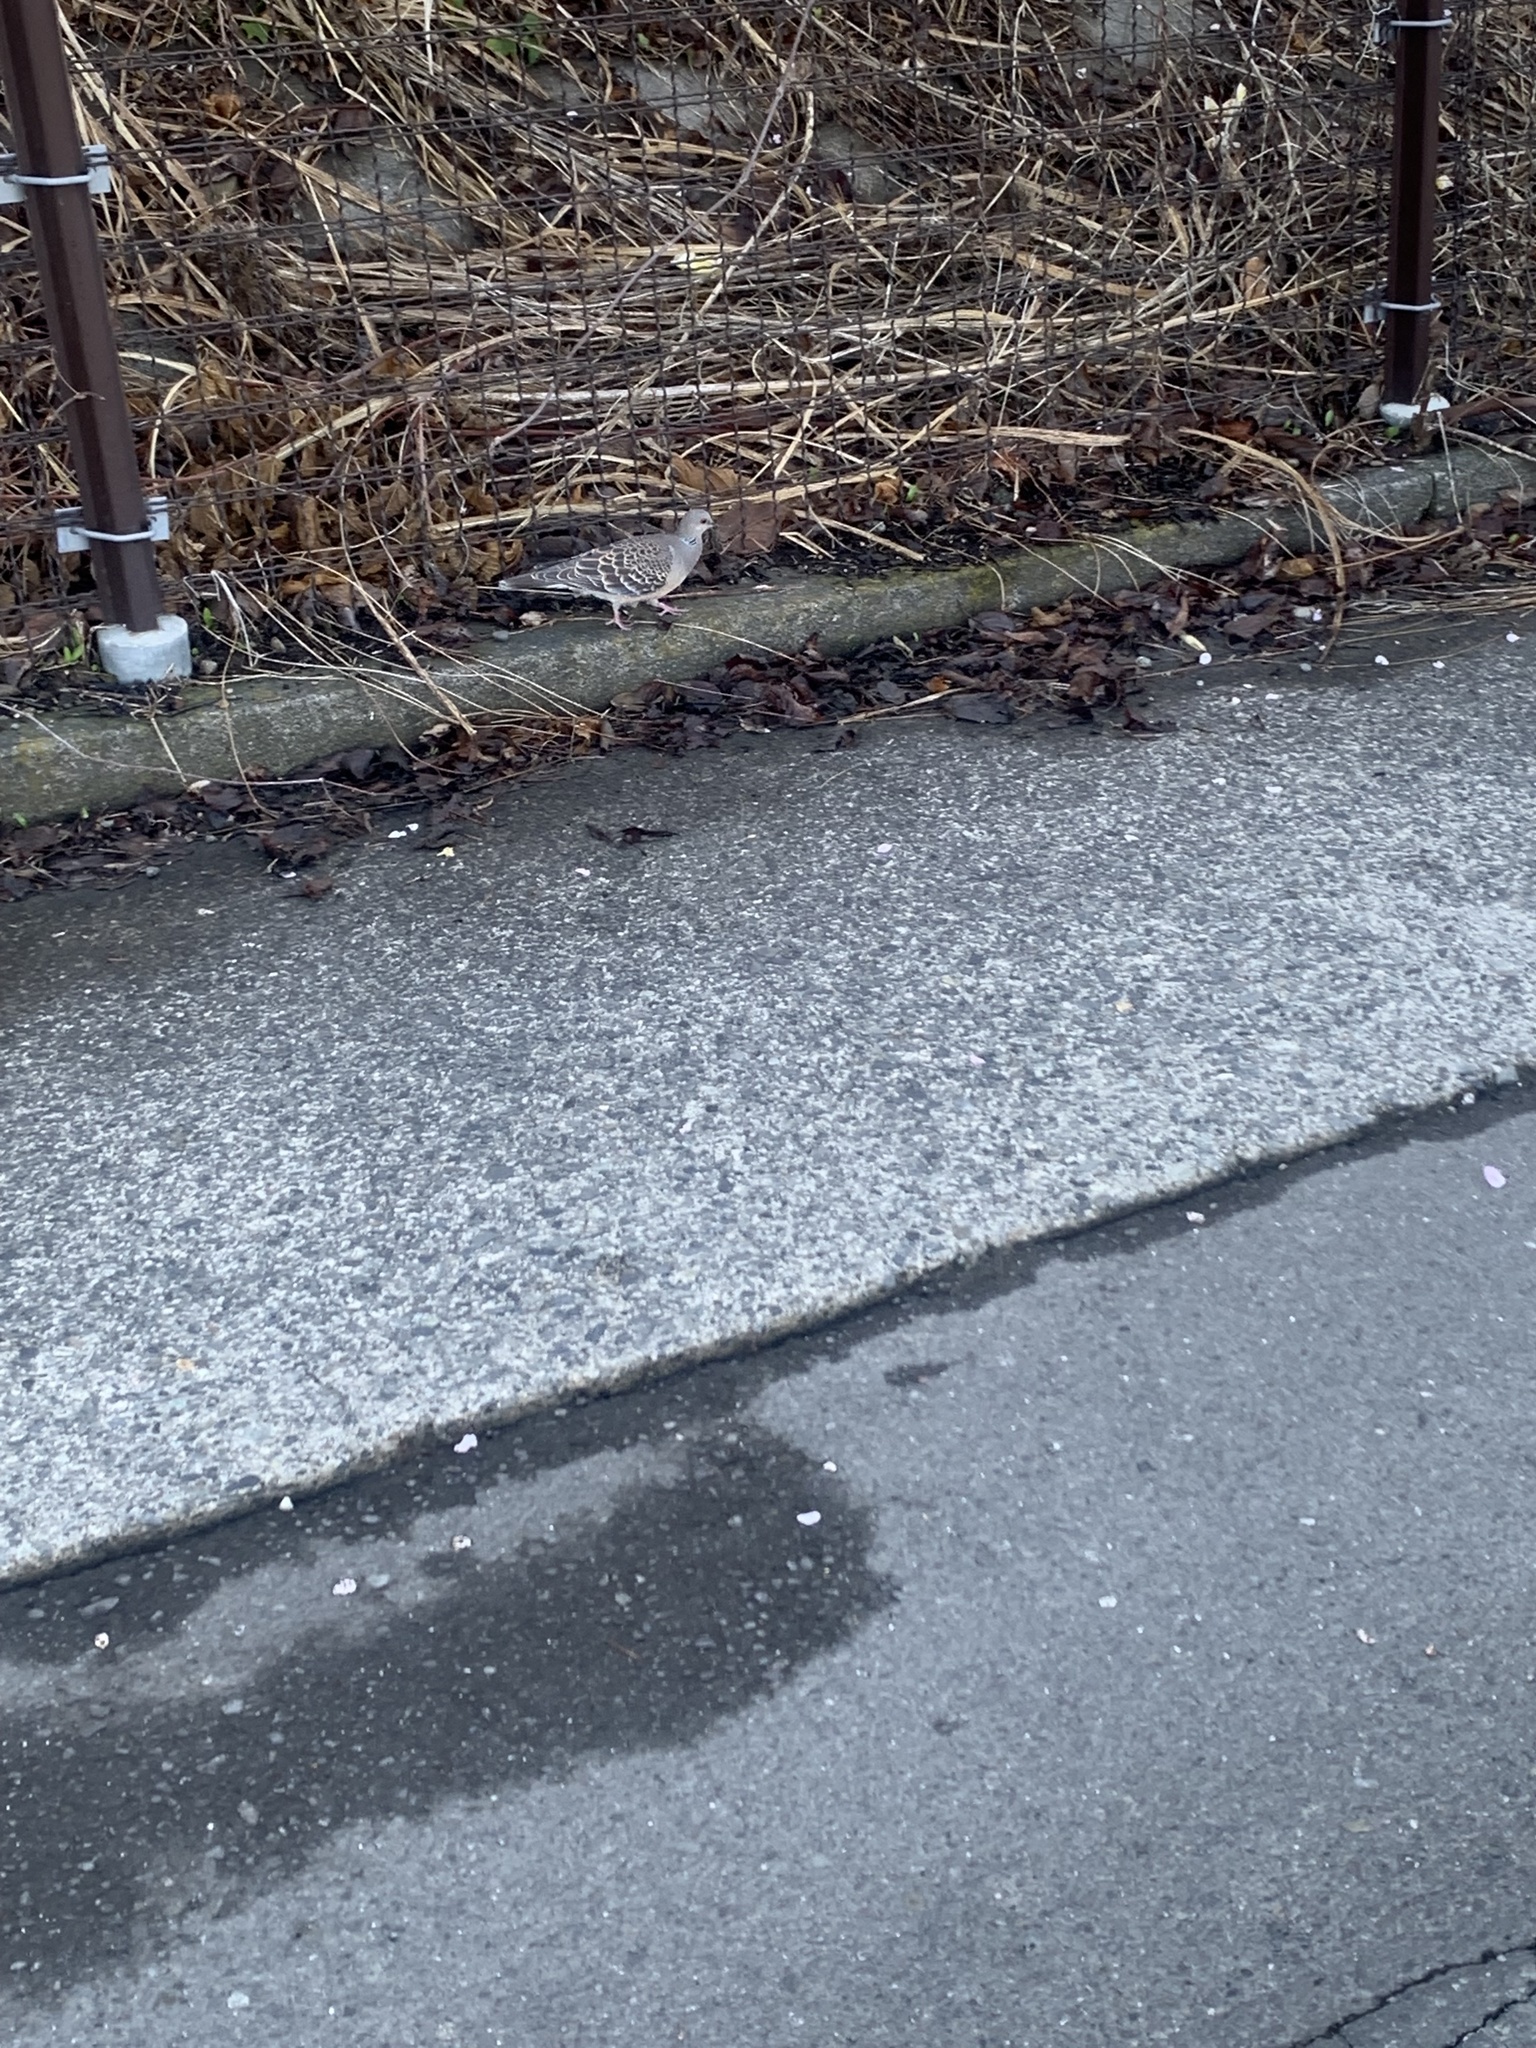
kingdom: Animalia
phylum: Chordata
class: Aves
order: Columbiformes
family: Columbidae
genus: Streptopelia
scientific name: Streptopelia orientalis
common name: Oriental turtle dove
